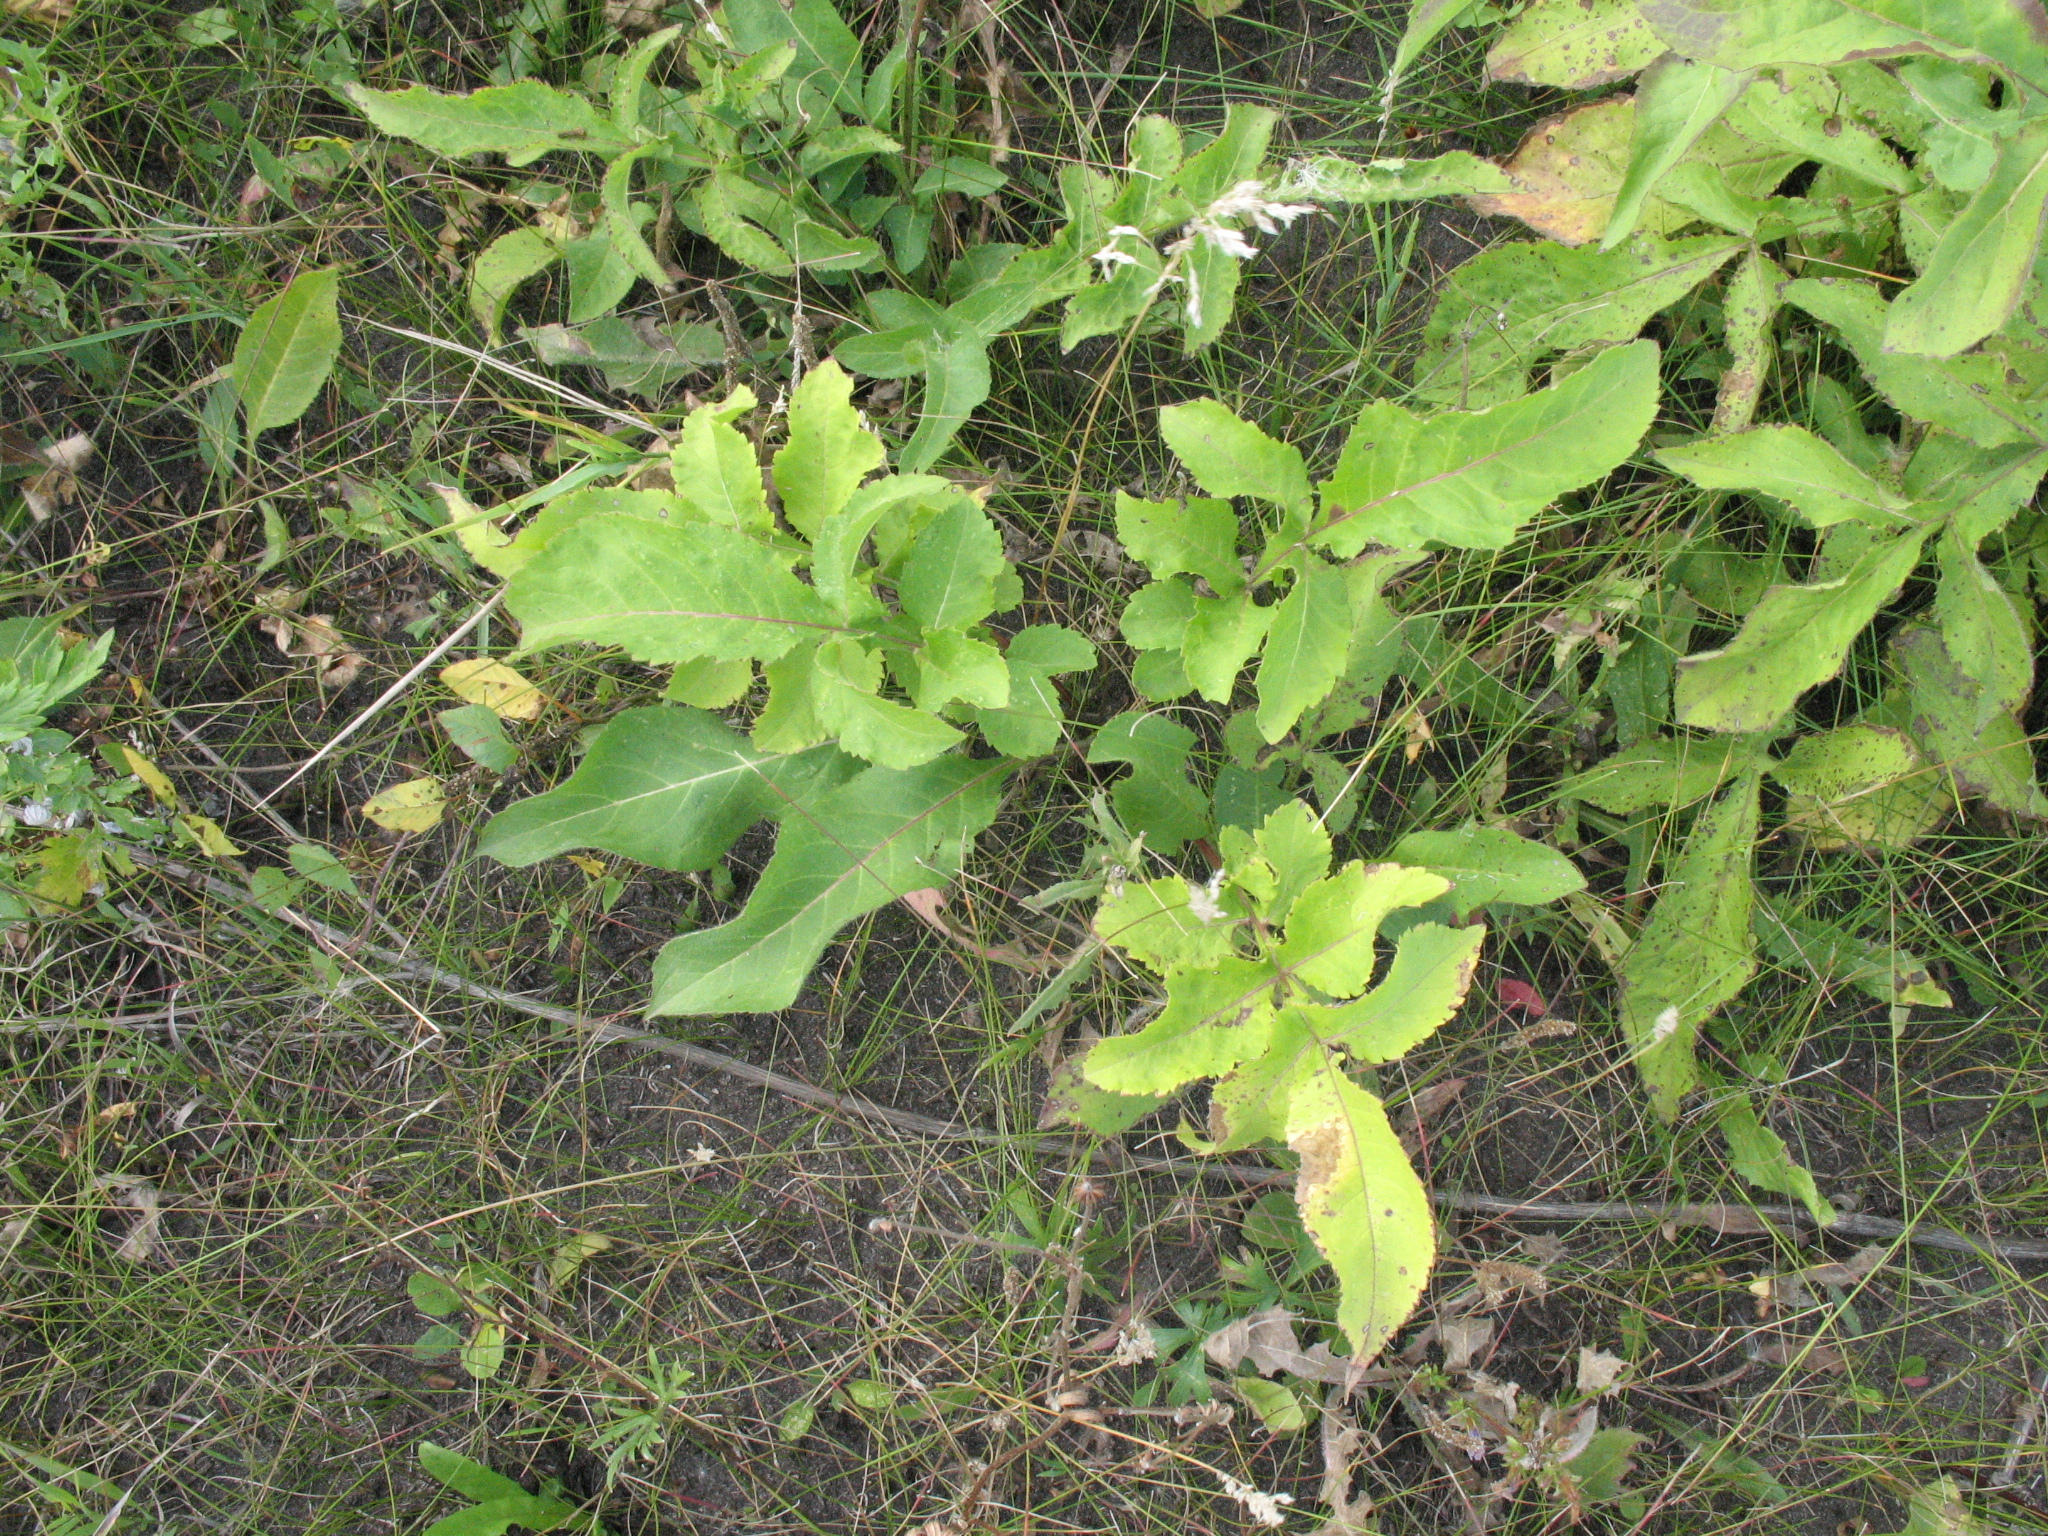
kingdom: Plantae
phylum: Tracheophyta
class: Magnoliopsida
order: Dipsacales
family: Caprifoliaceae
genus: Cephalaria
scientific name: Cephalaria litvinovii
